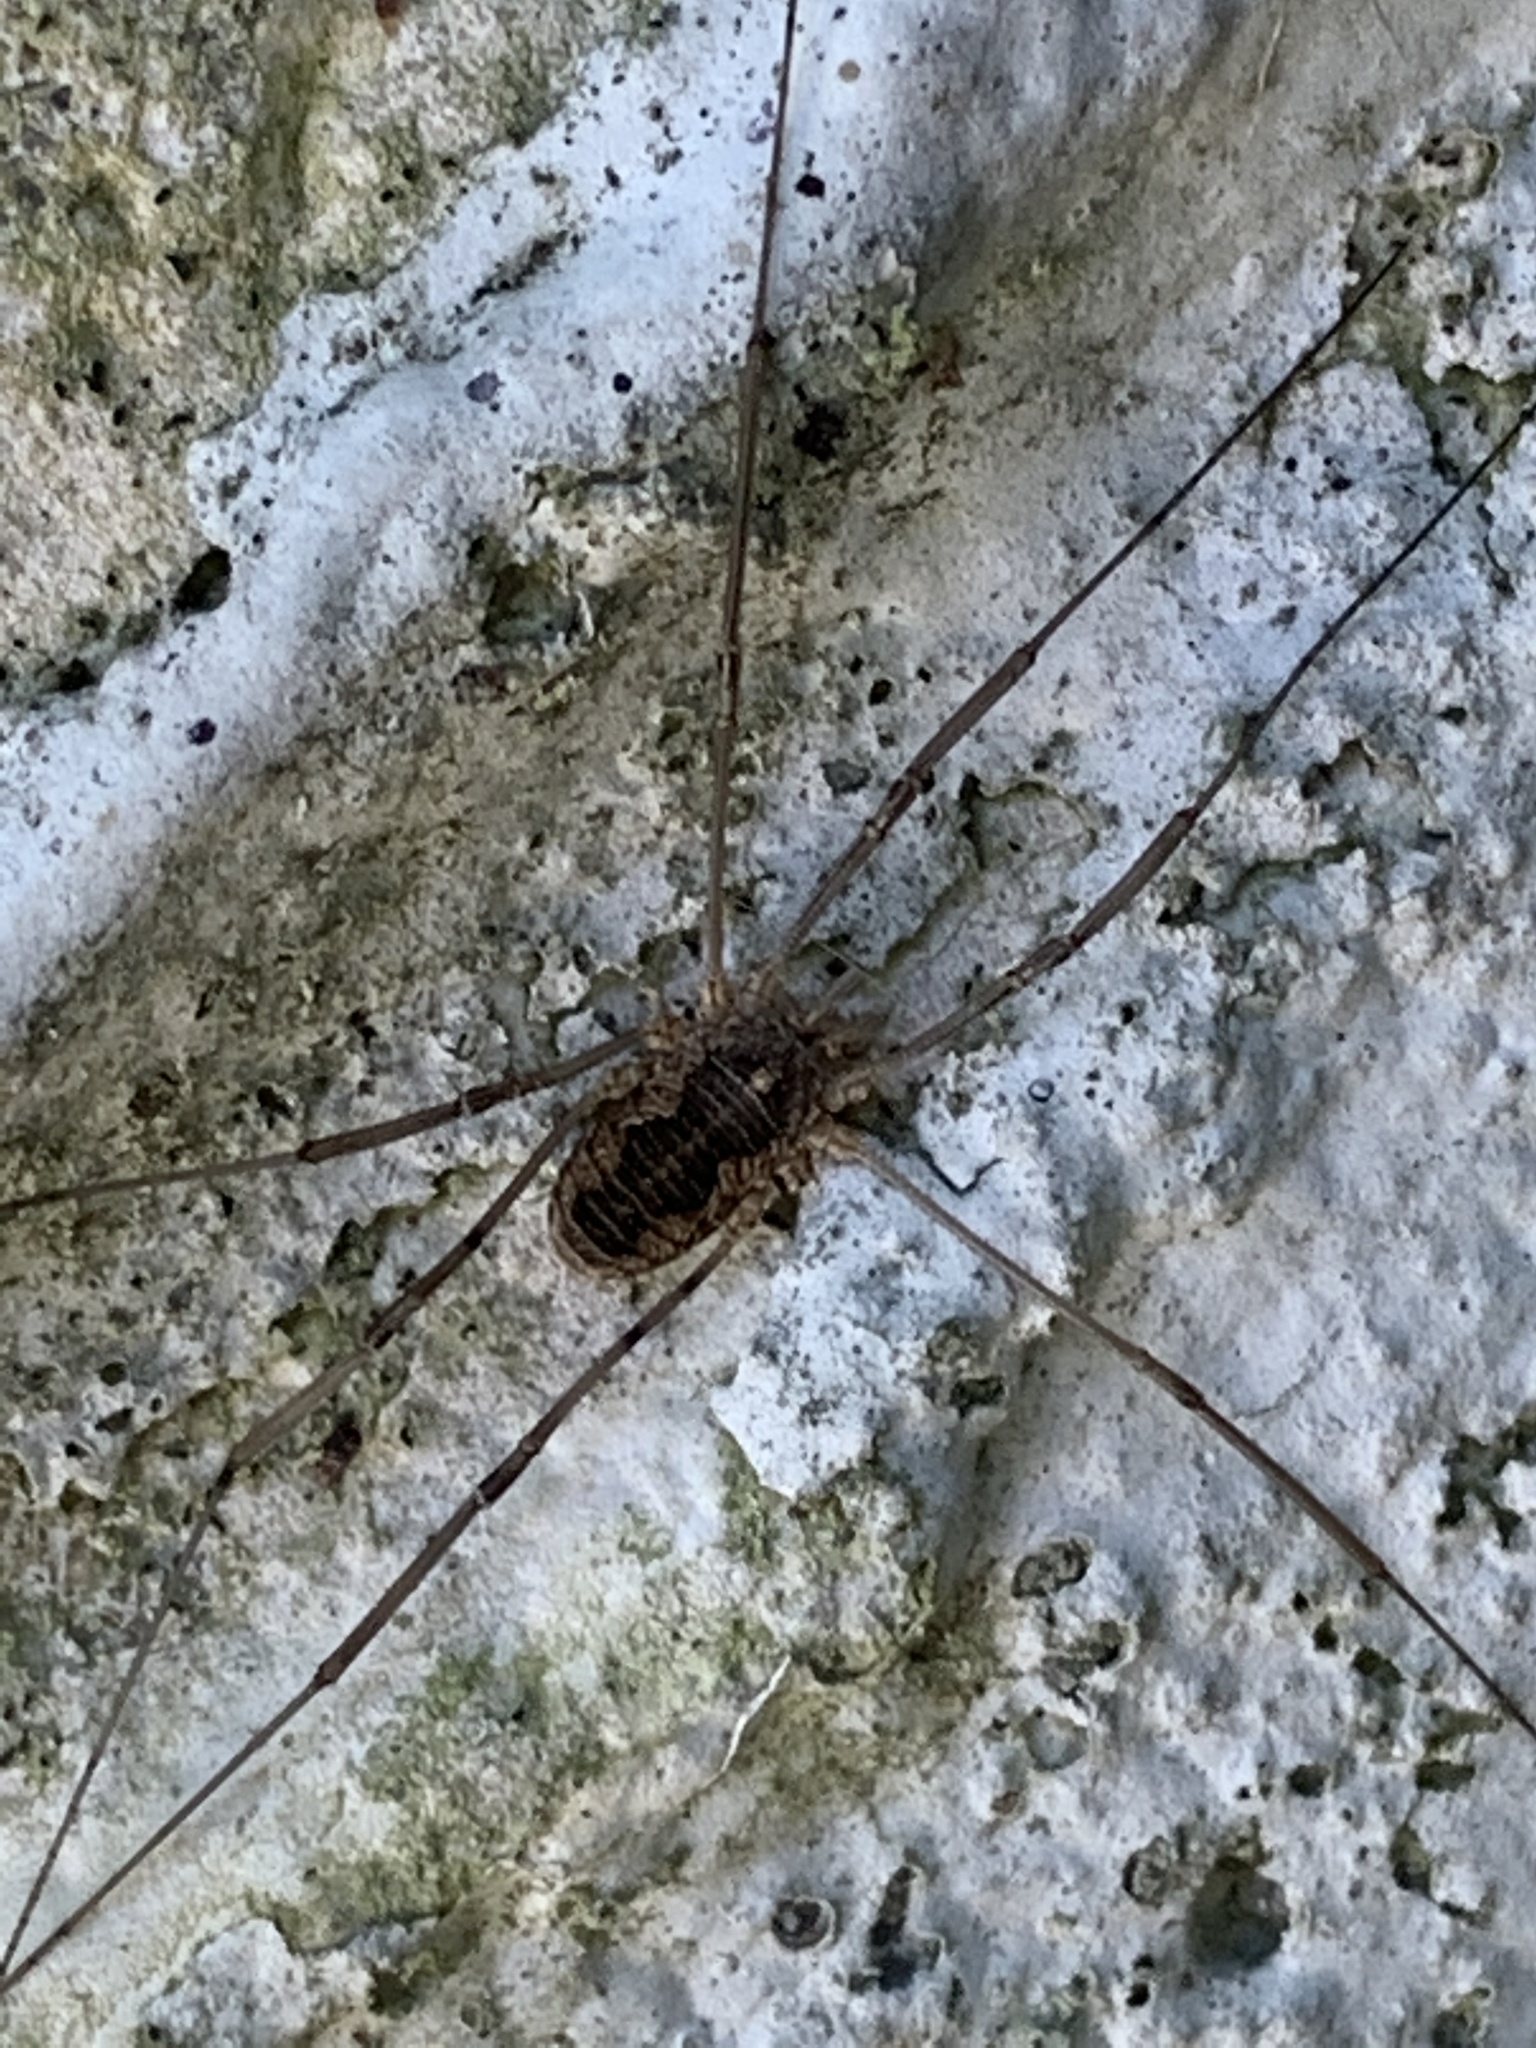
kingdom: Animalia
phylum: Arthropoda
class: Arachnida
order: Opiliones
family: Phalangiidae
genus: Phalangium
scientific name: Phalangium opilio
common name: Daddy longleg
